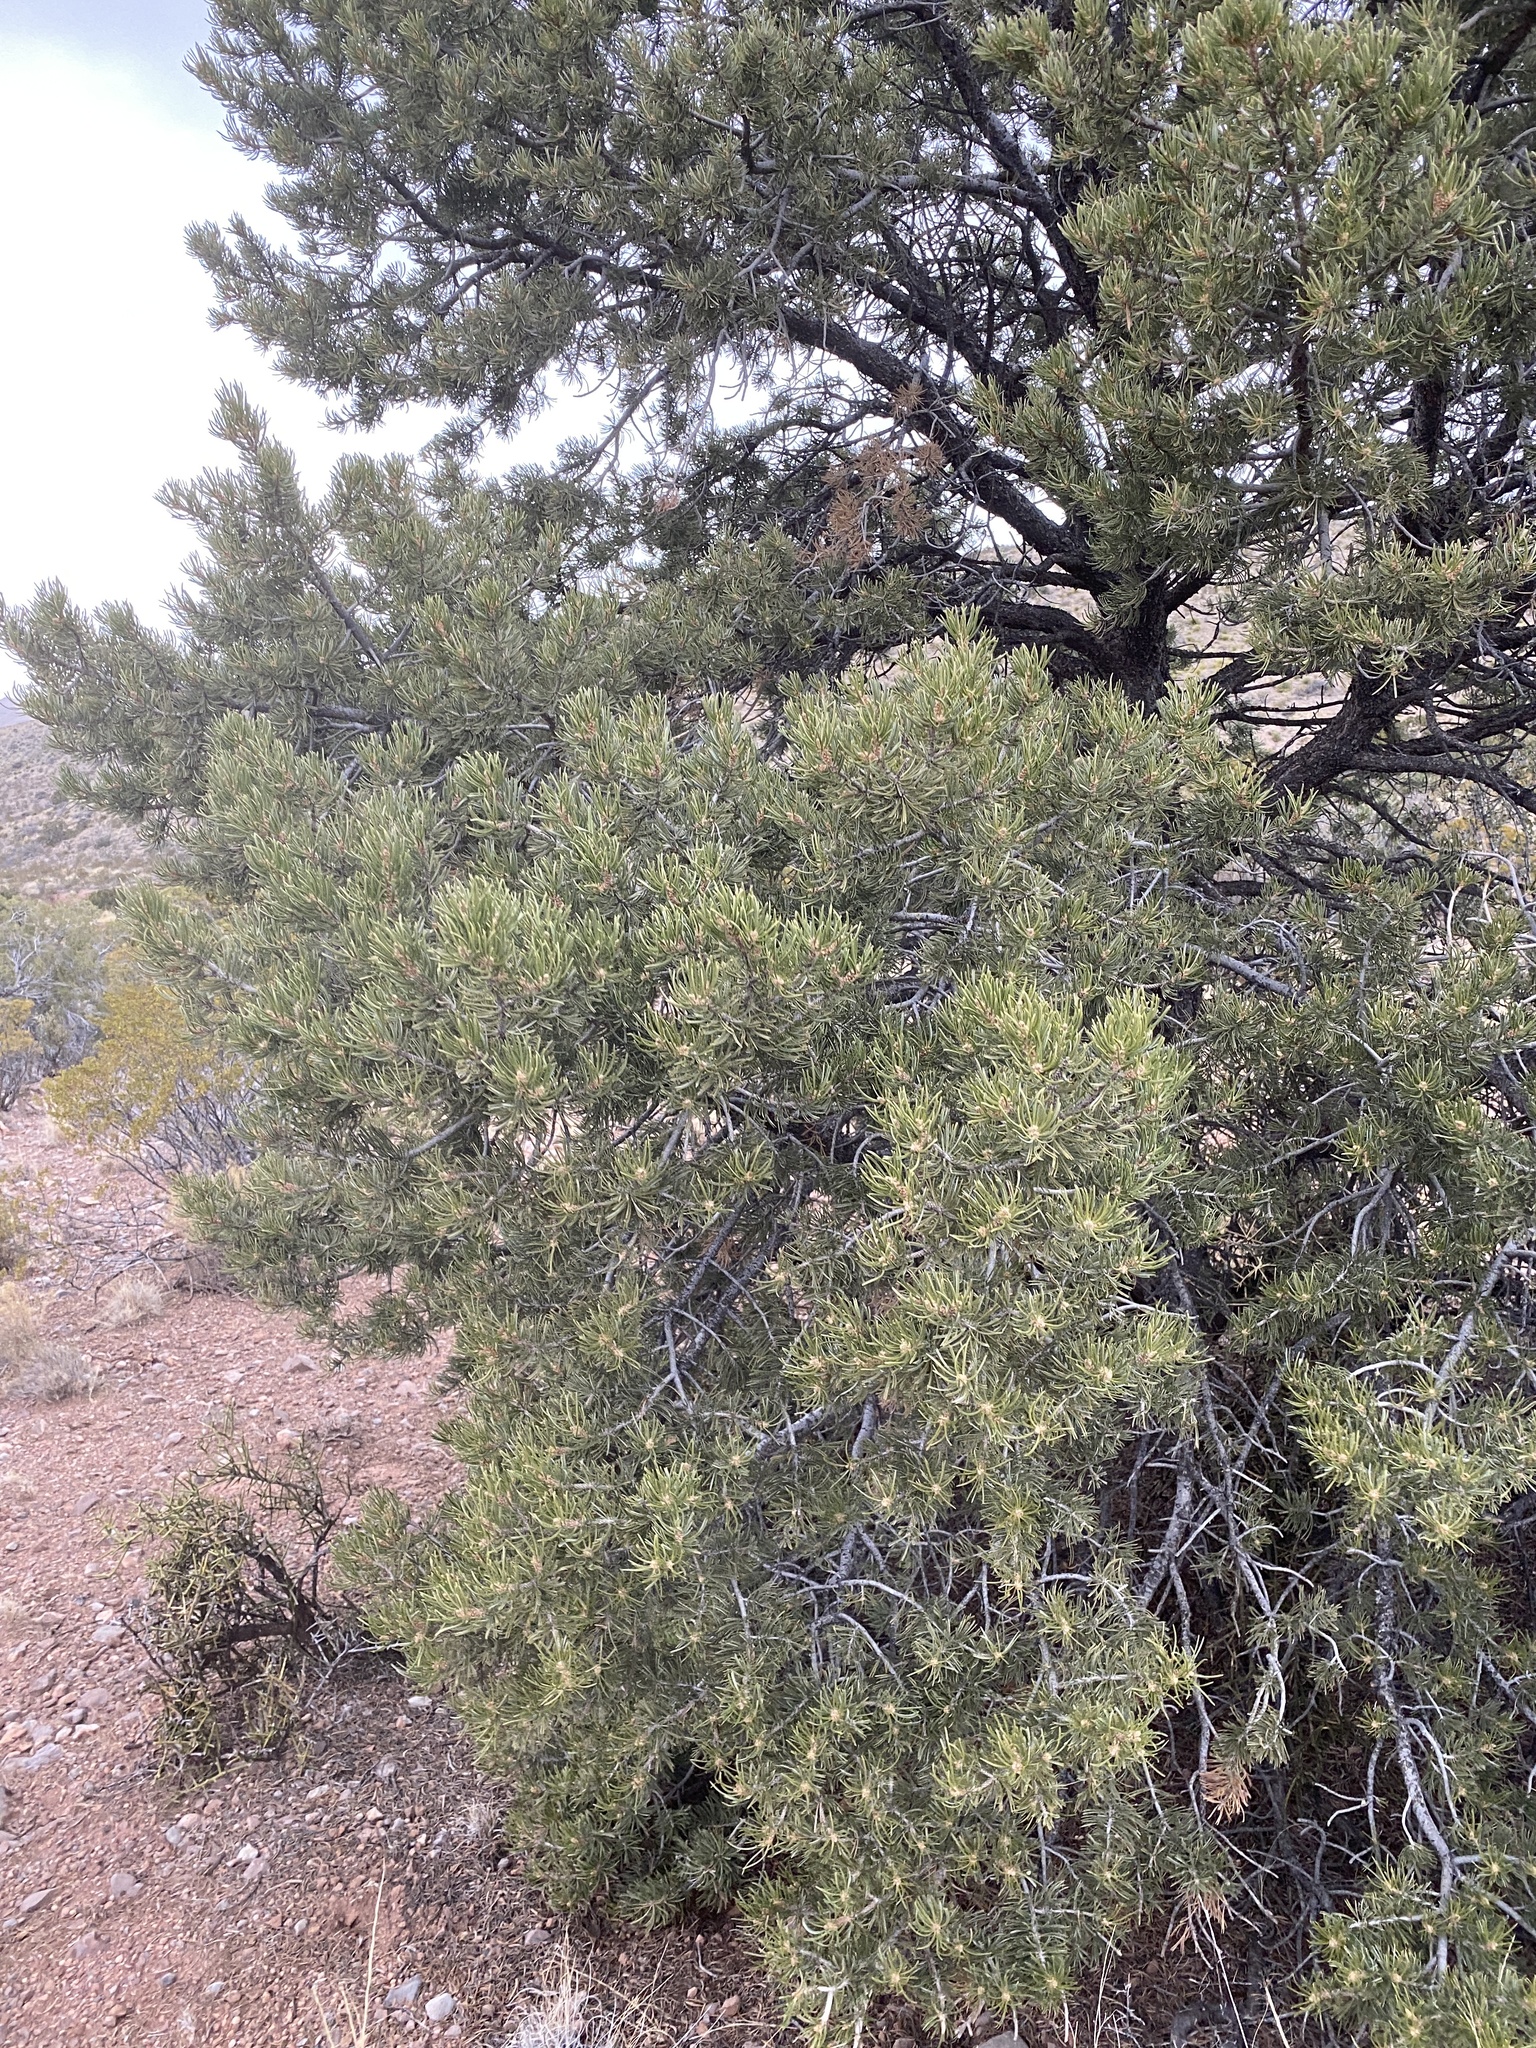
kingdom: Plantae
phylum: Tracheophyta
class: Pinopsida
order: Pinales
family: Pinaceae
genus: Pinus
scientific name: Pinus edulis
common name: Colorado pinyon
